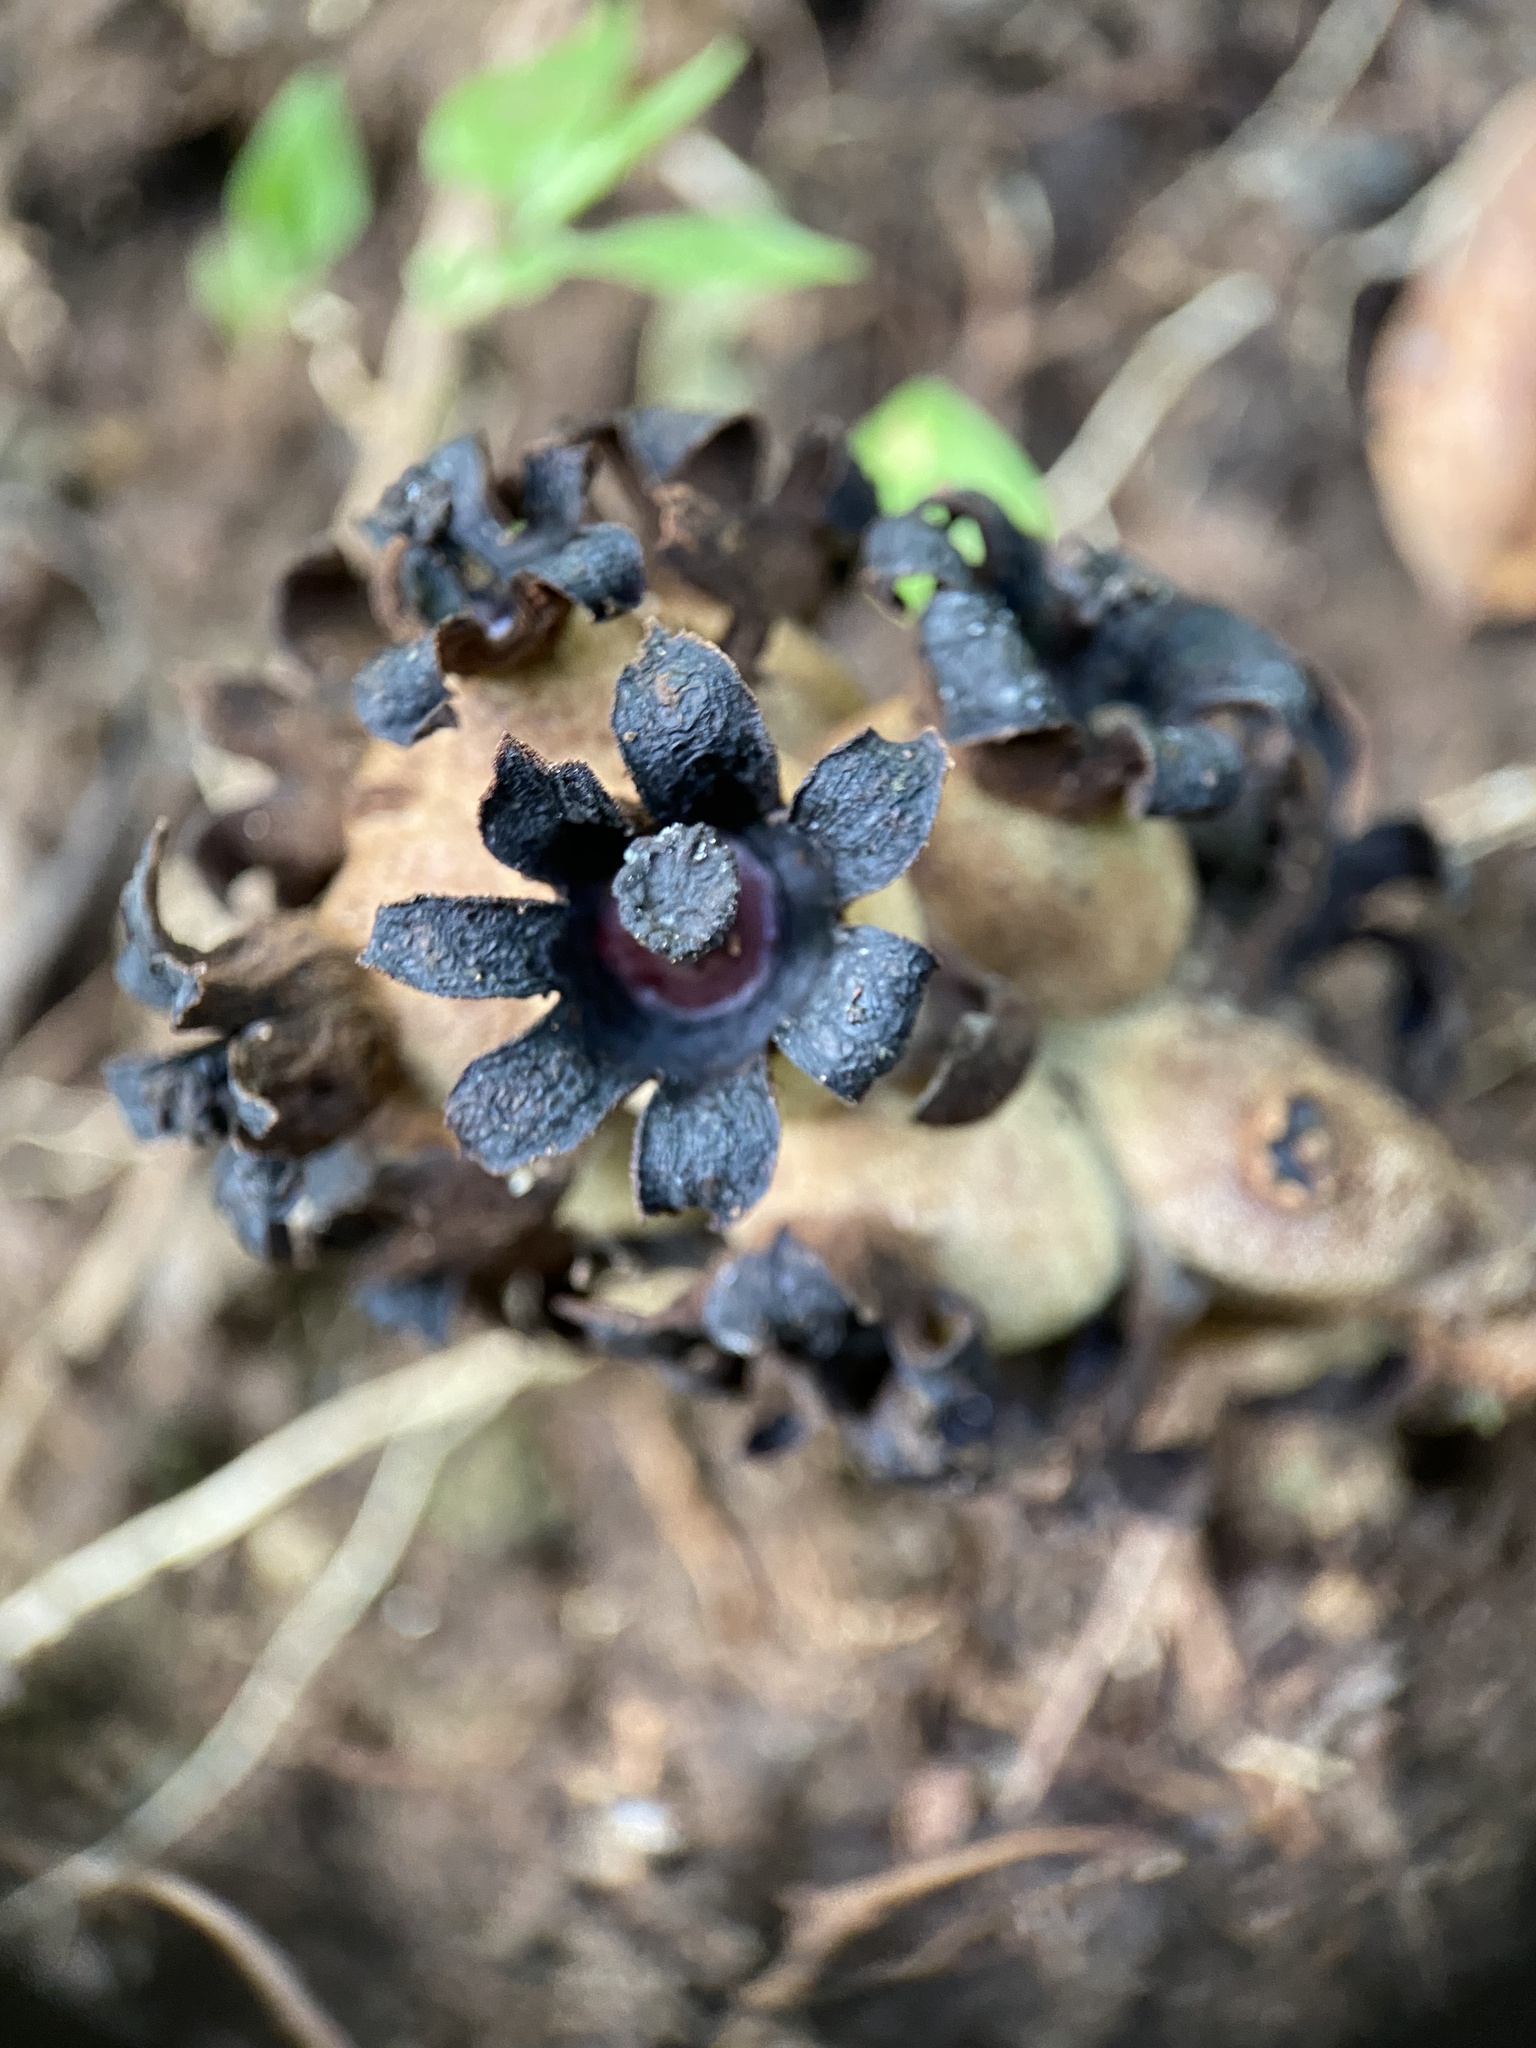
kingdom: Plantae
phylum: Tracheophyta
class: Magnoliopsida
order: Malvales
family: Cytinaceae
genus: Bdallophyton
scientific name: Bdallophyton americanum
